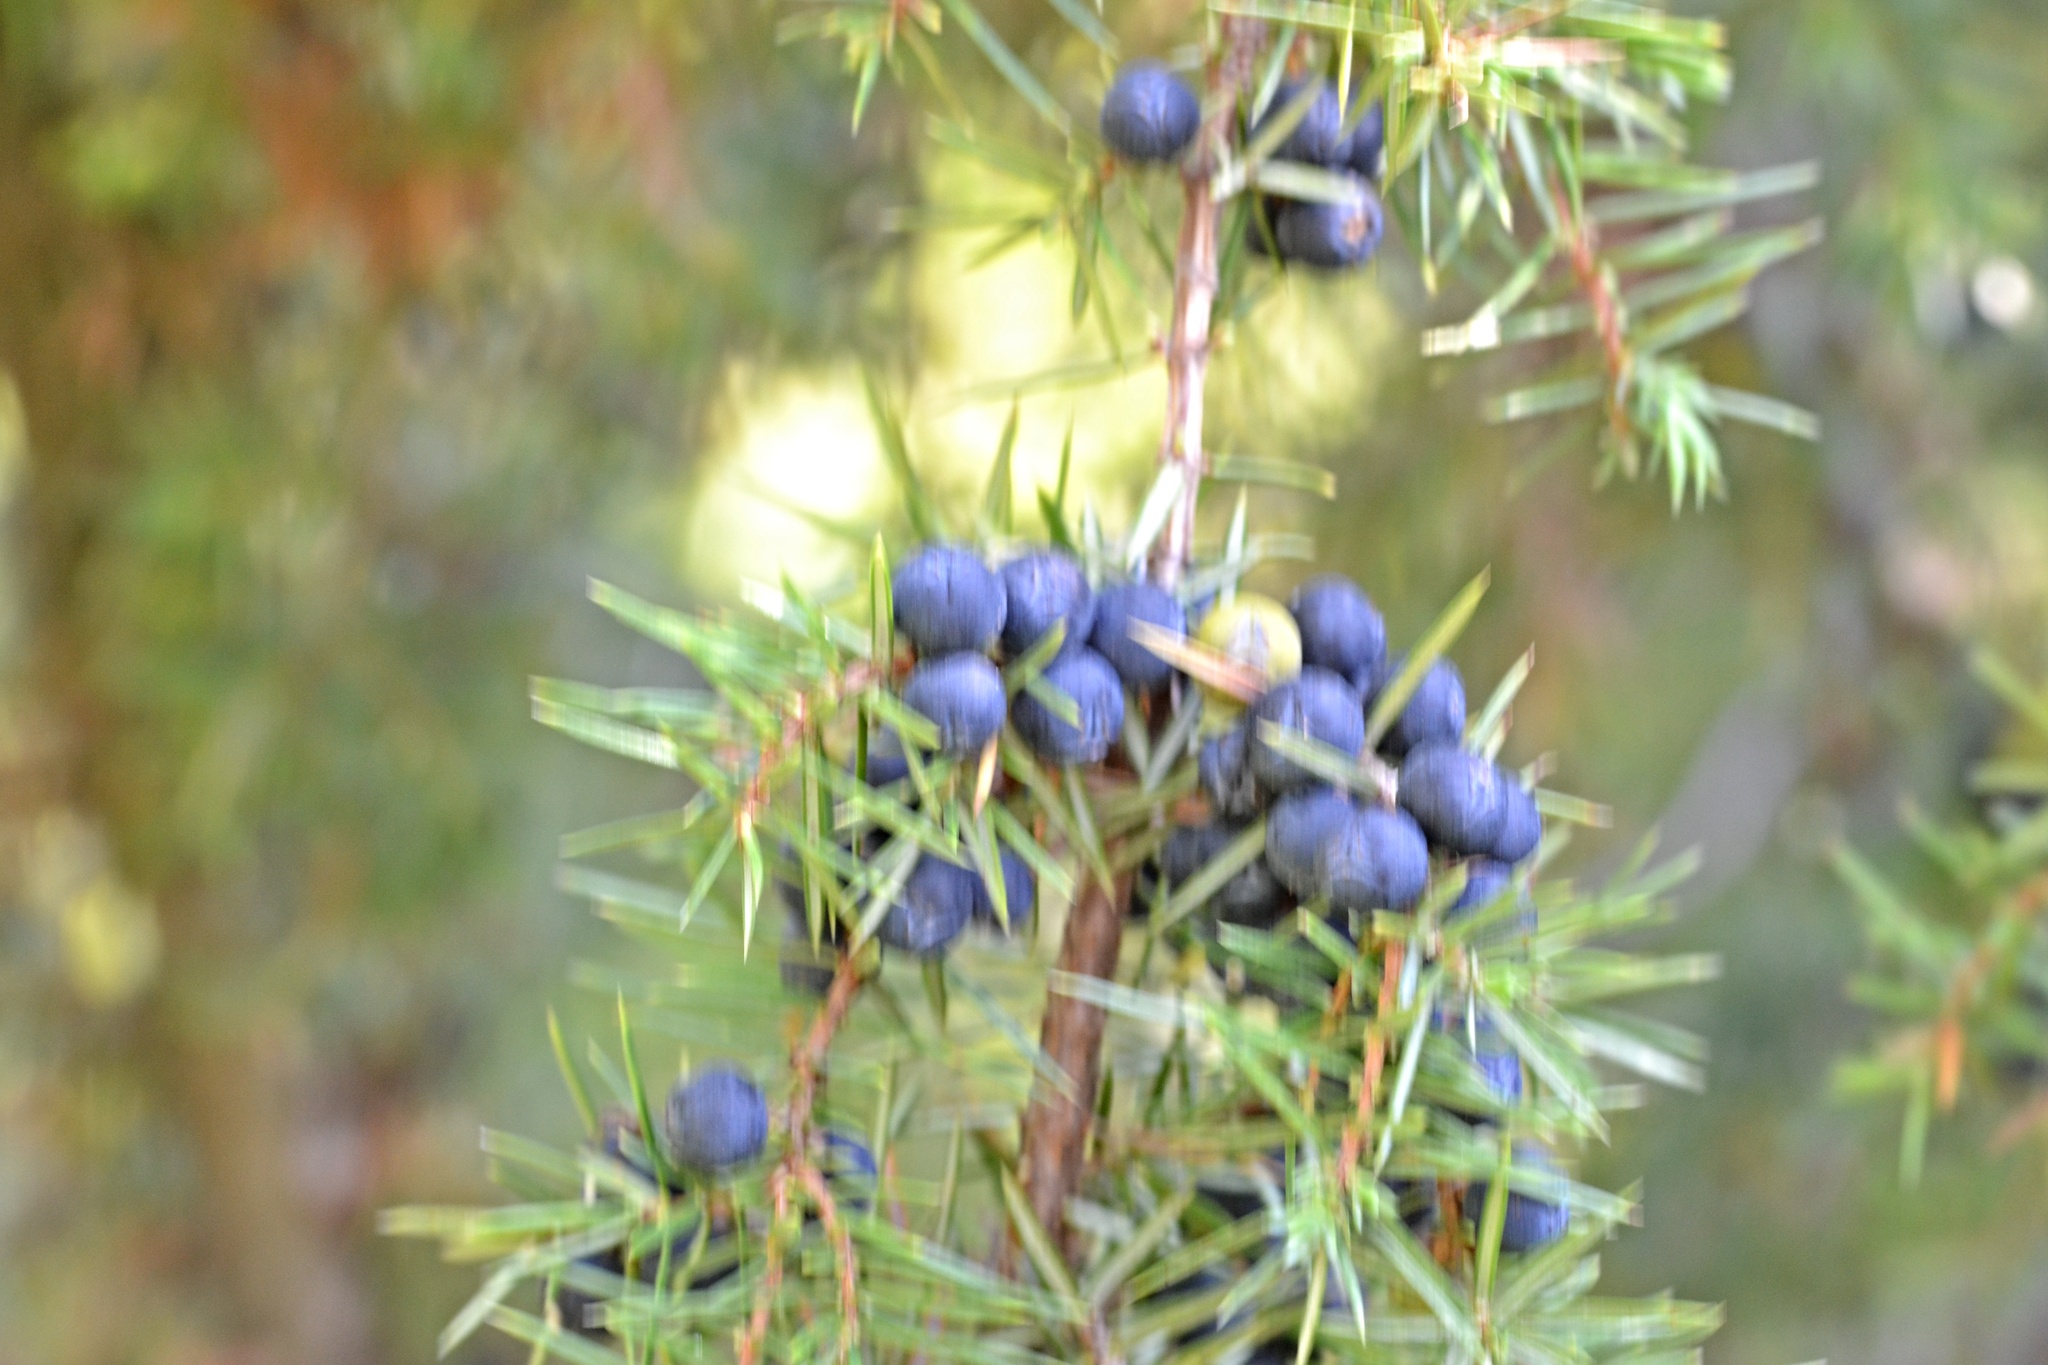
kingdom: Plantae
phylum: Tracheophyta
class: Pinopsida
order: Pinales
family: Cupressaceae
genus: Juniperus
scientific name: Juniperus communis
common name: Common juniper
